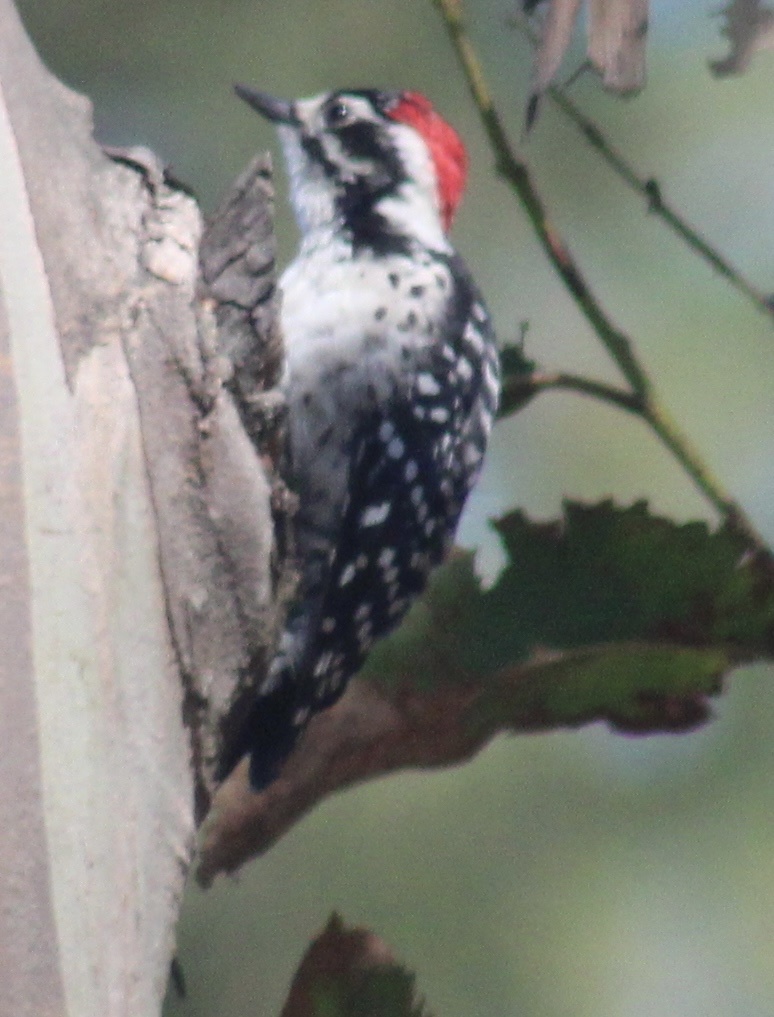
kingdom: Animalia
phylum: Chordata
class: Aves
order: Piciformes
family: Picidae
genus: Dryobates
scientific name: Dryobates nuttallii
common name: Nuttall's woodpecker
